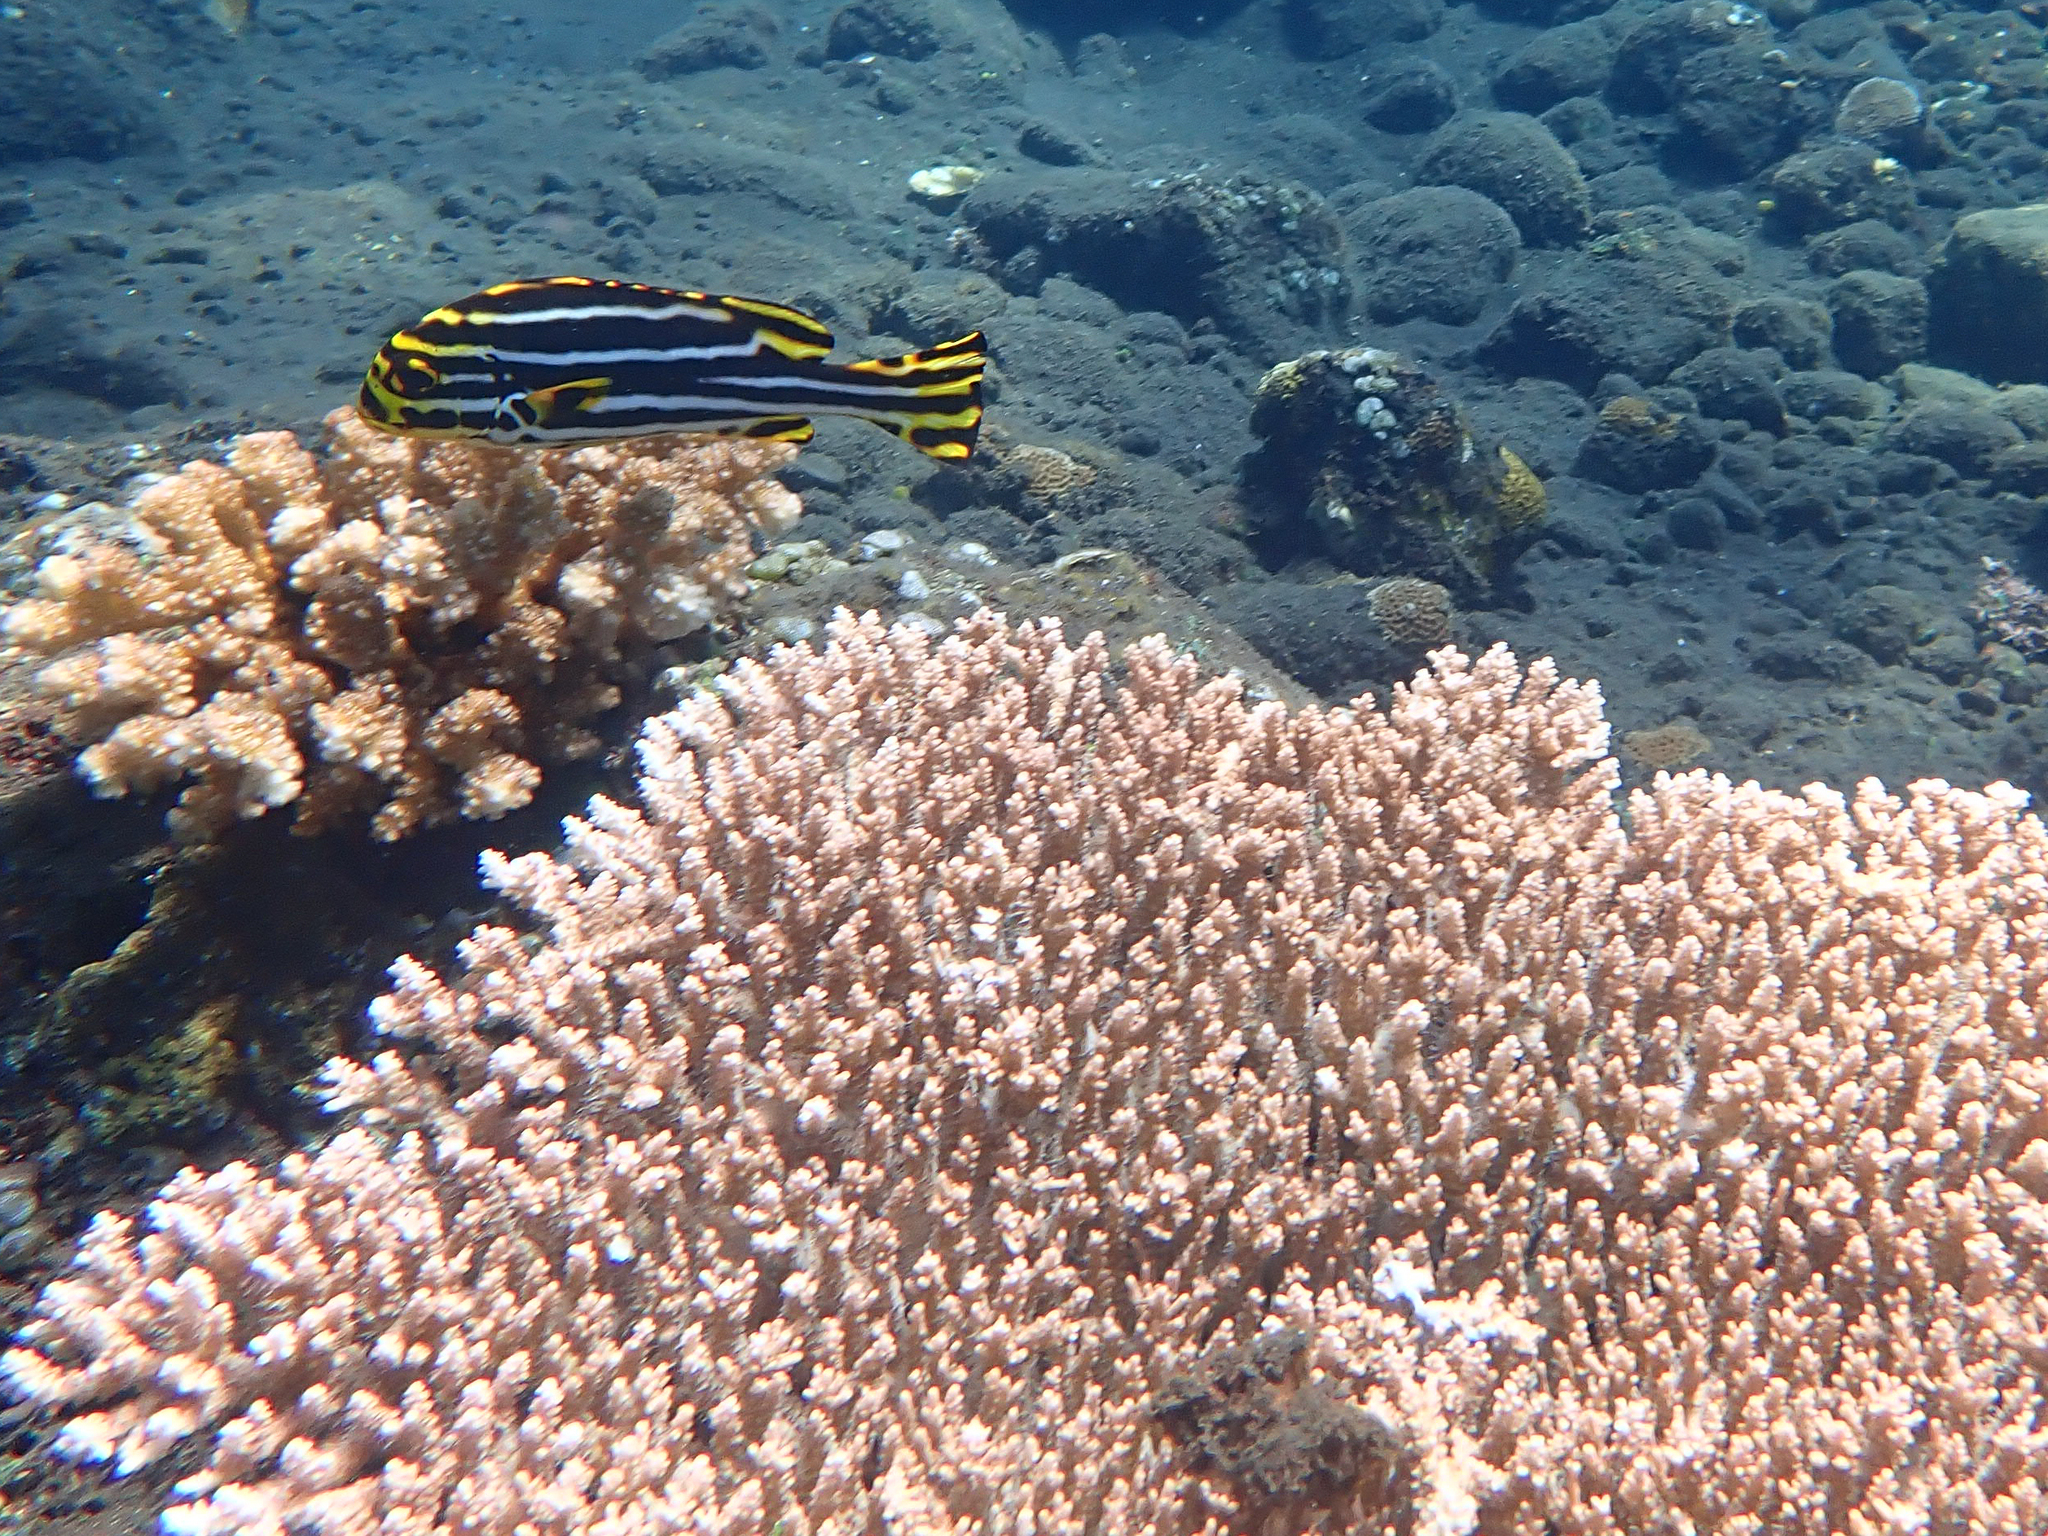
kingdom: Animalia
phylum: Chordata
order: Perciformes
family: Haemulidae
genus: Plectorhinchus
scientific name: Plectorhinchus vittatus
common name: Oriental sweetlips
